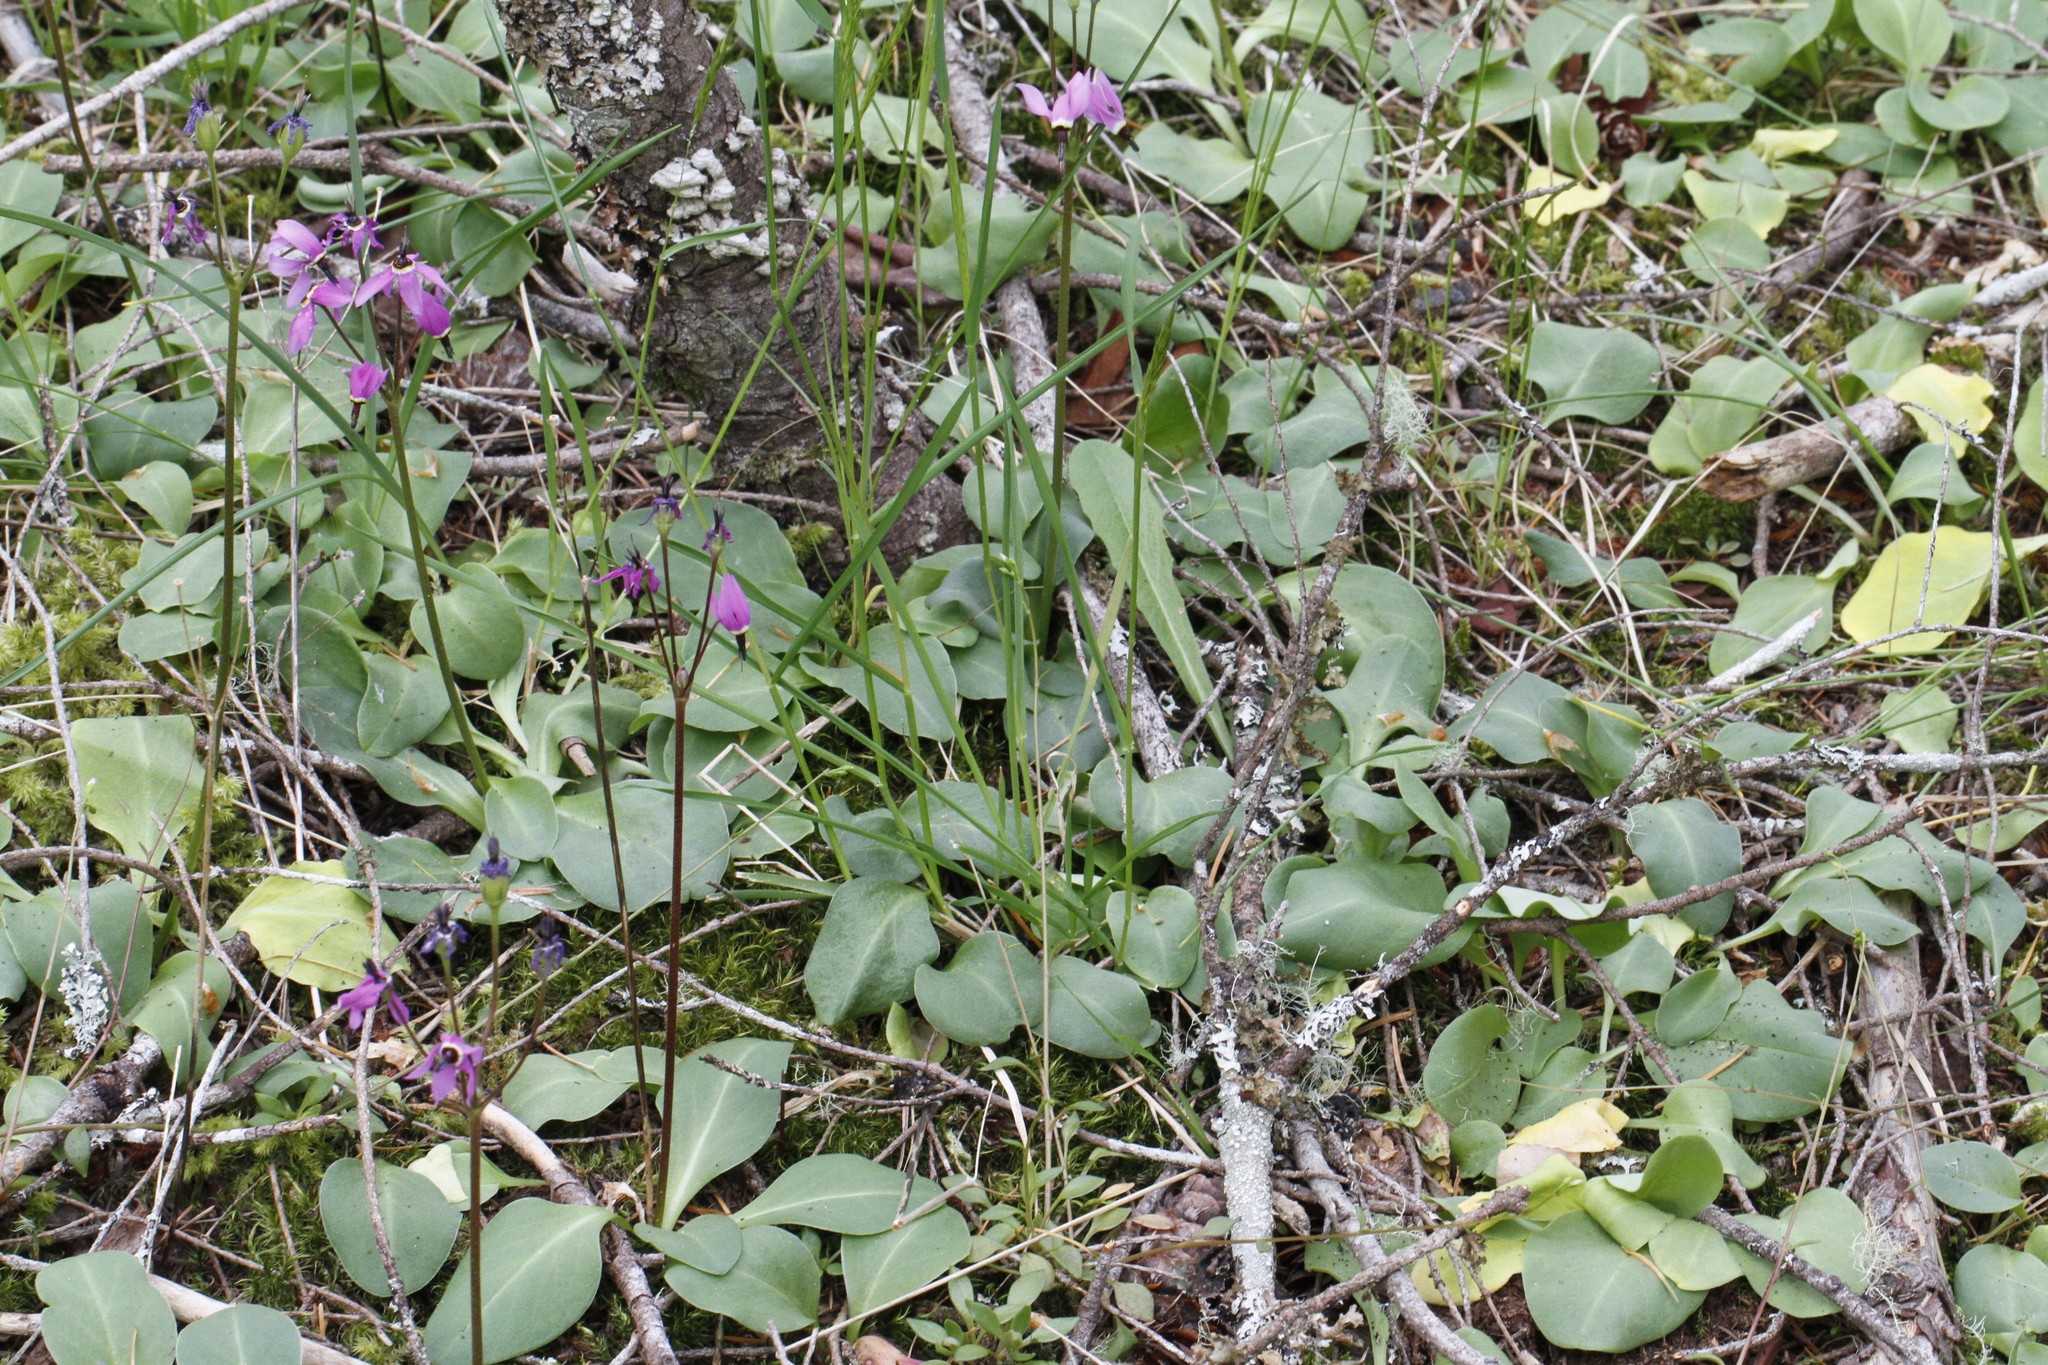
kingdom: Plantae
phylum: Tracheophyta
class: Magnoliopsida
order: Ericales
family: Primulaceae
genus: Dodecatheon
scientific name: Dodecatheon hendersonii
